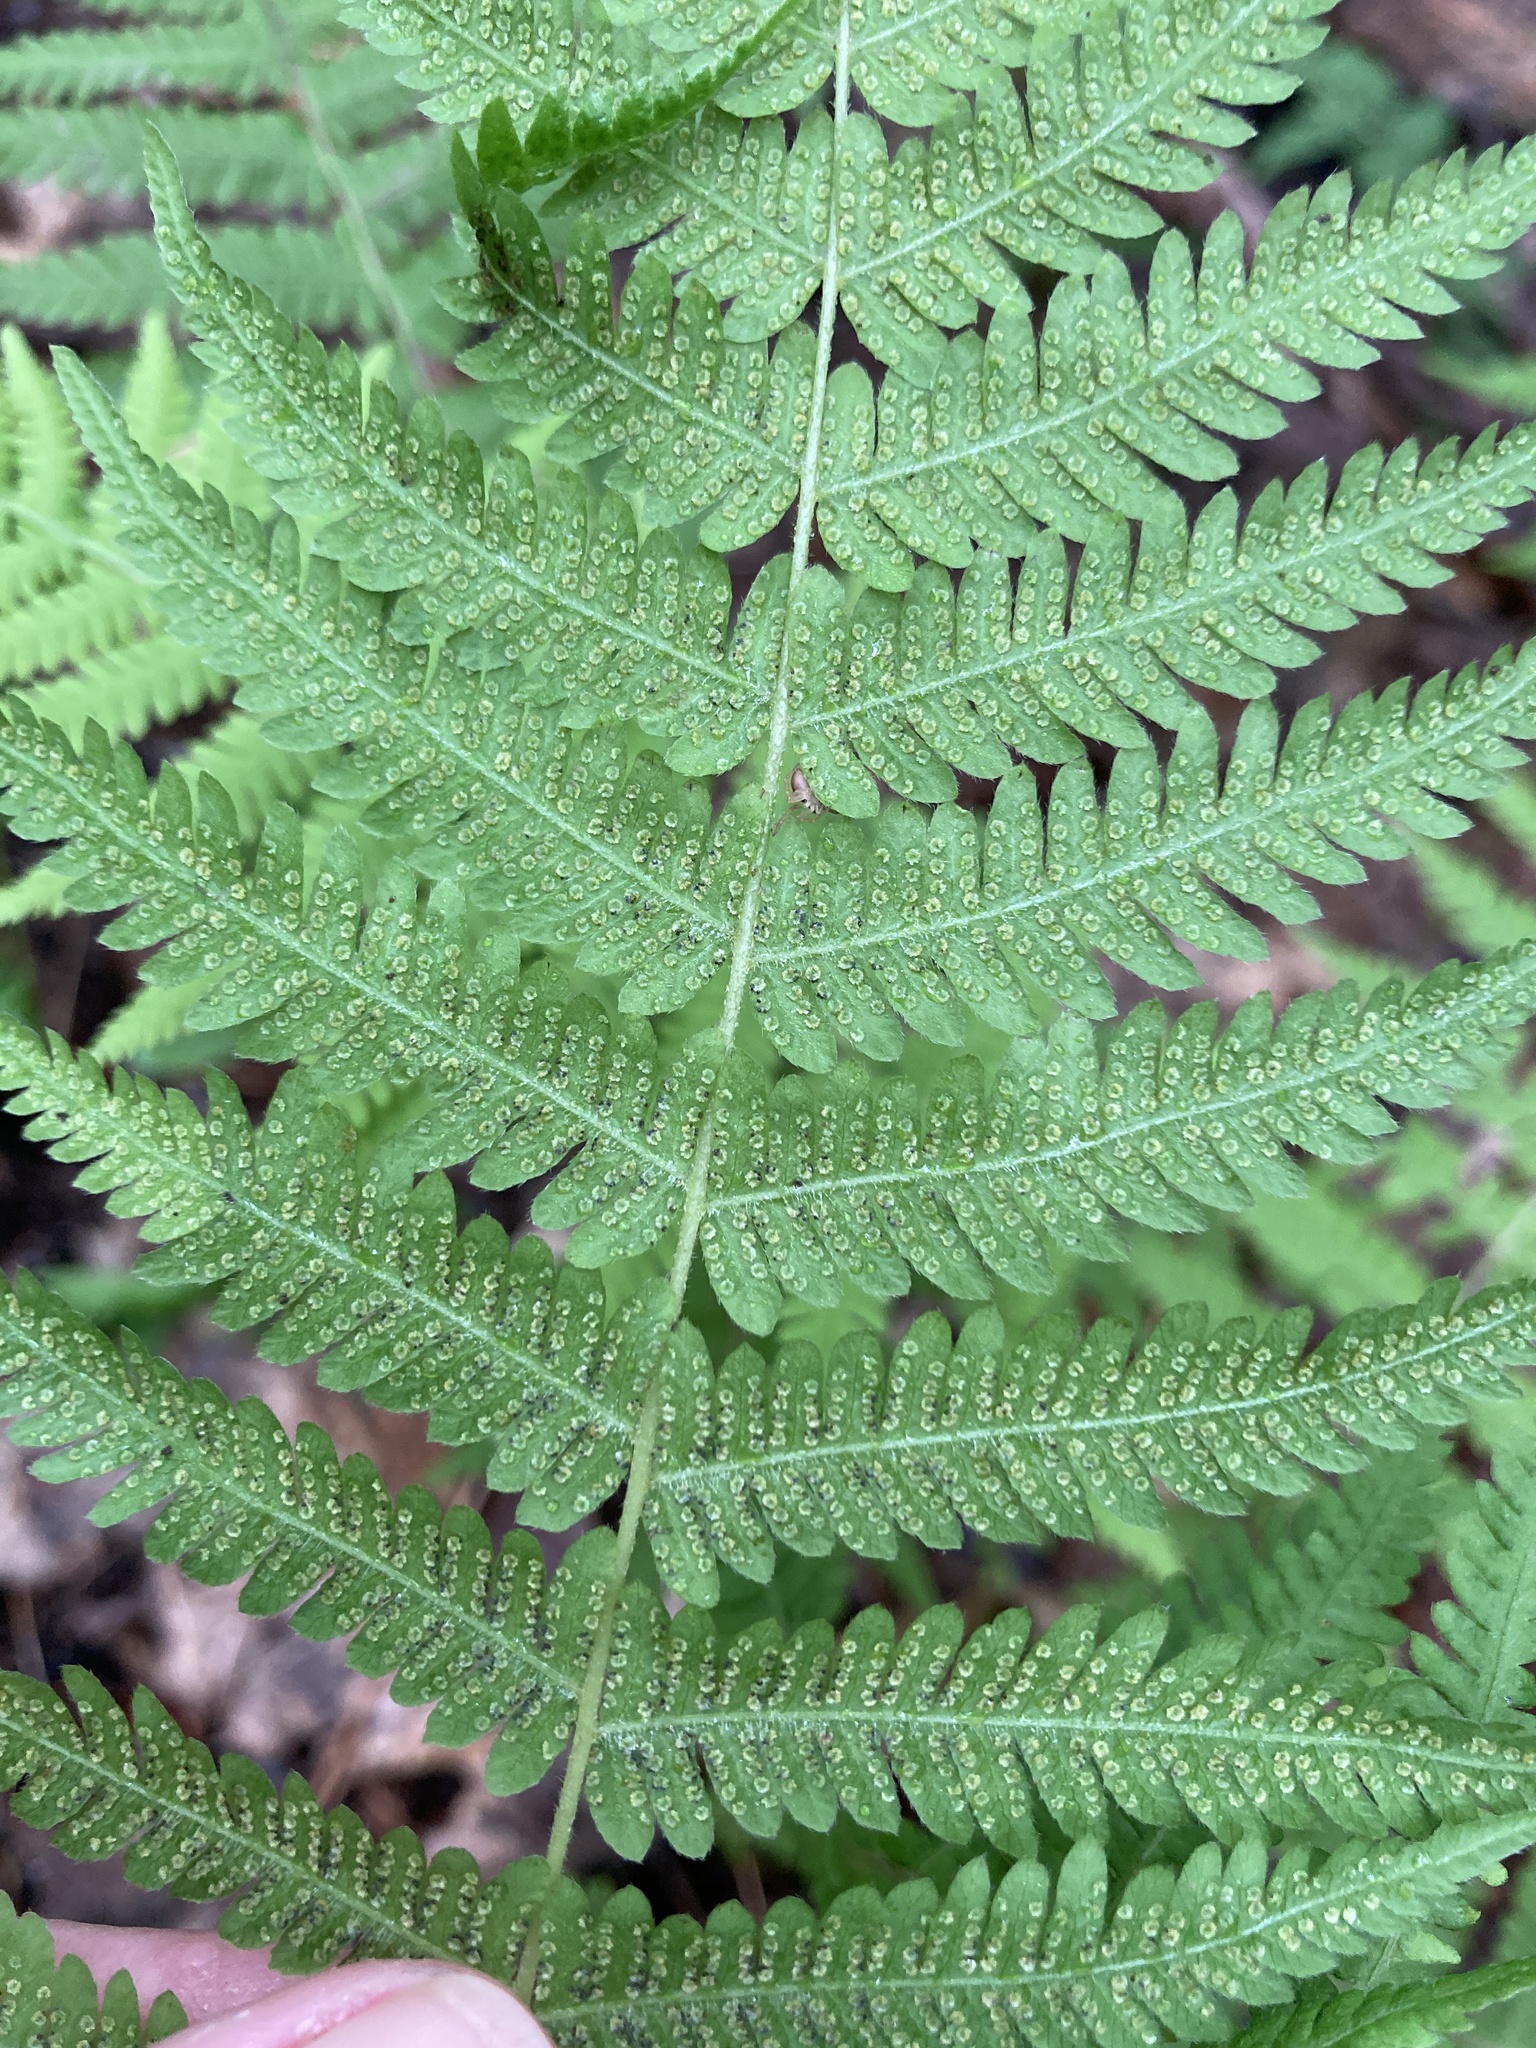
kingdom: Plantae
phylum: Tracheophyta
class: Polypodiopsida
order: Polypodiales
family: Thelypteridaceae
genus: Amauropelta
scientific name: Amauropelta noveboracensis
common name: New york fern
